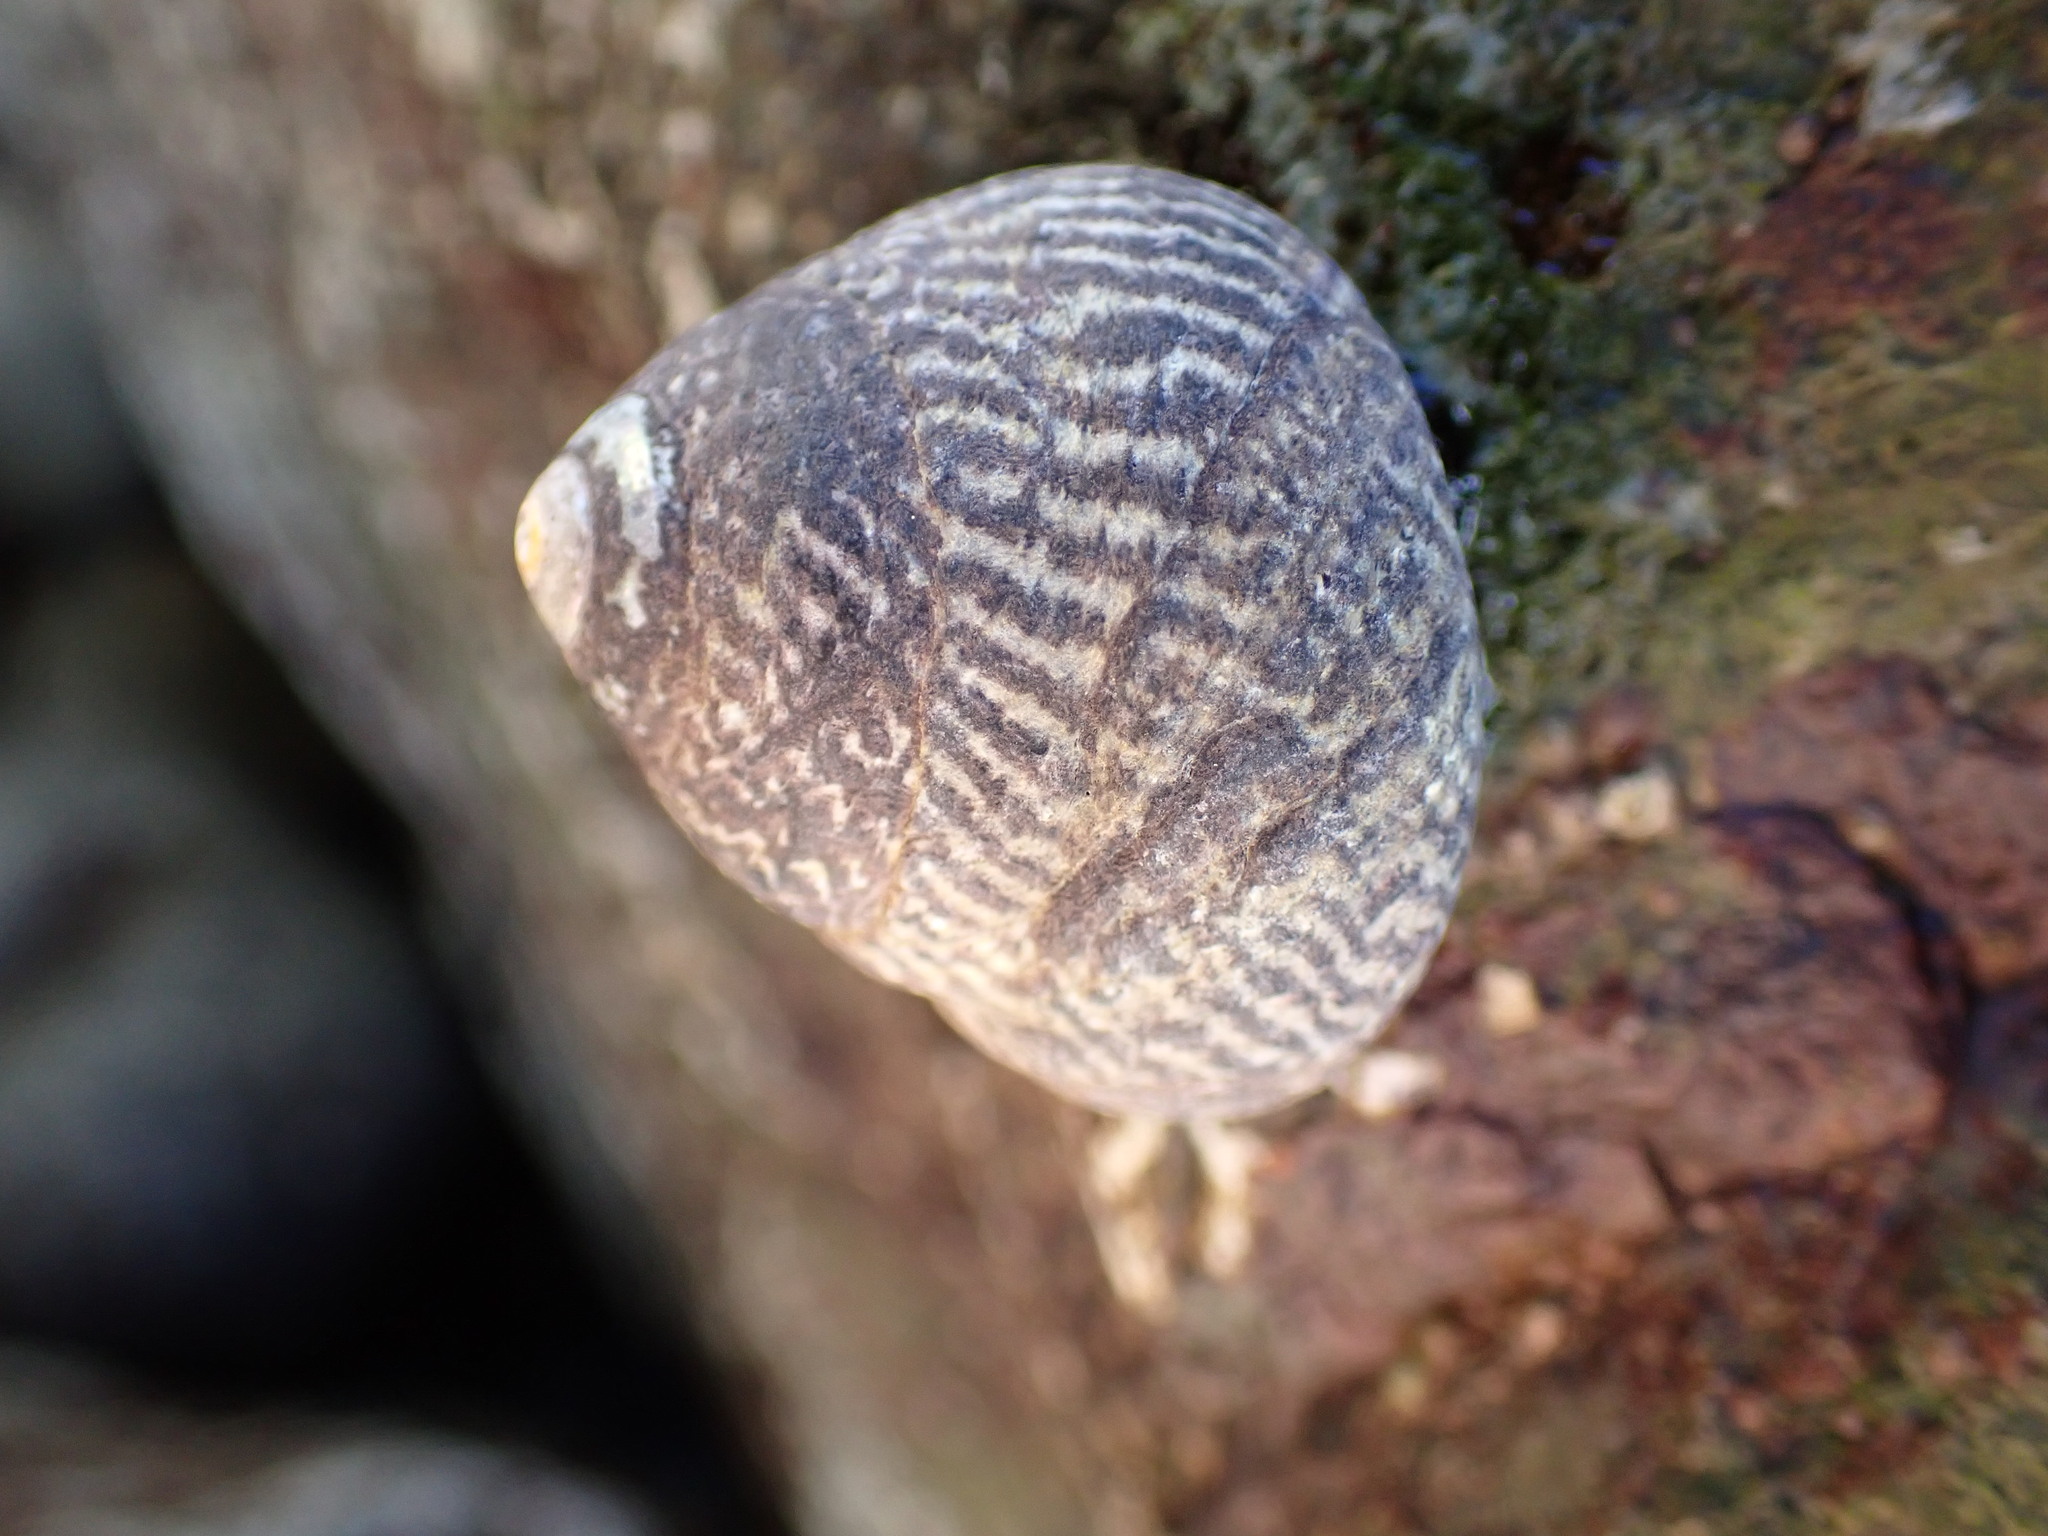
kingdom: Animalia
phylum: Mollusca
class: Gastropoda
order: Trochida
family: Tegulidae
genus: Tegula
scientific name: Tegula gallina
